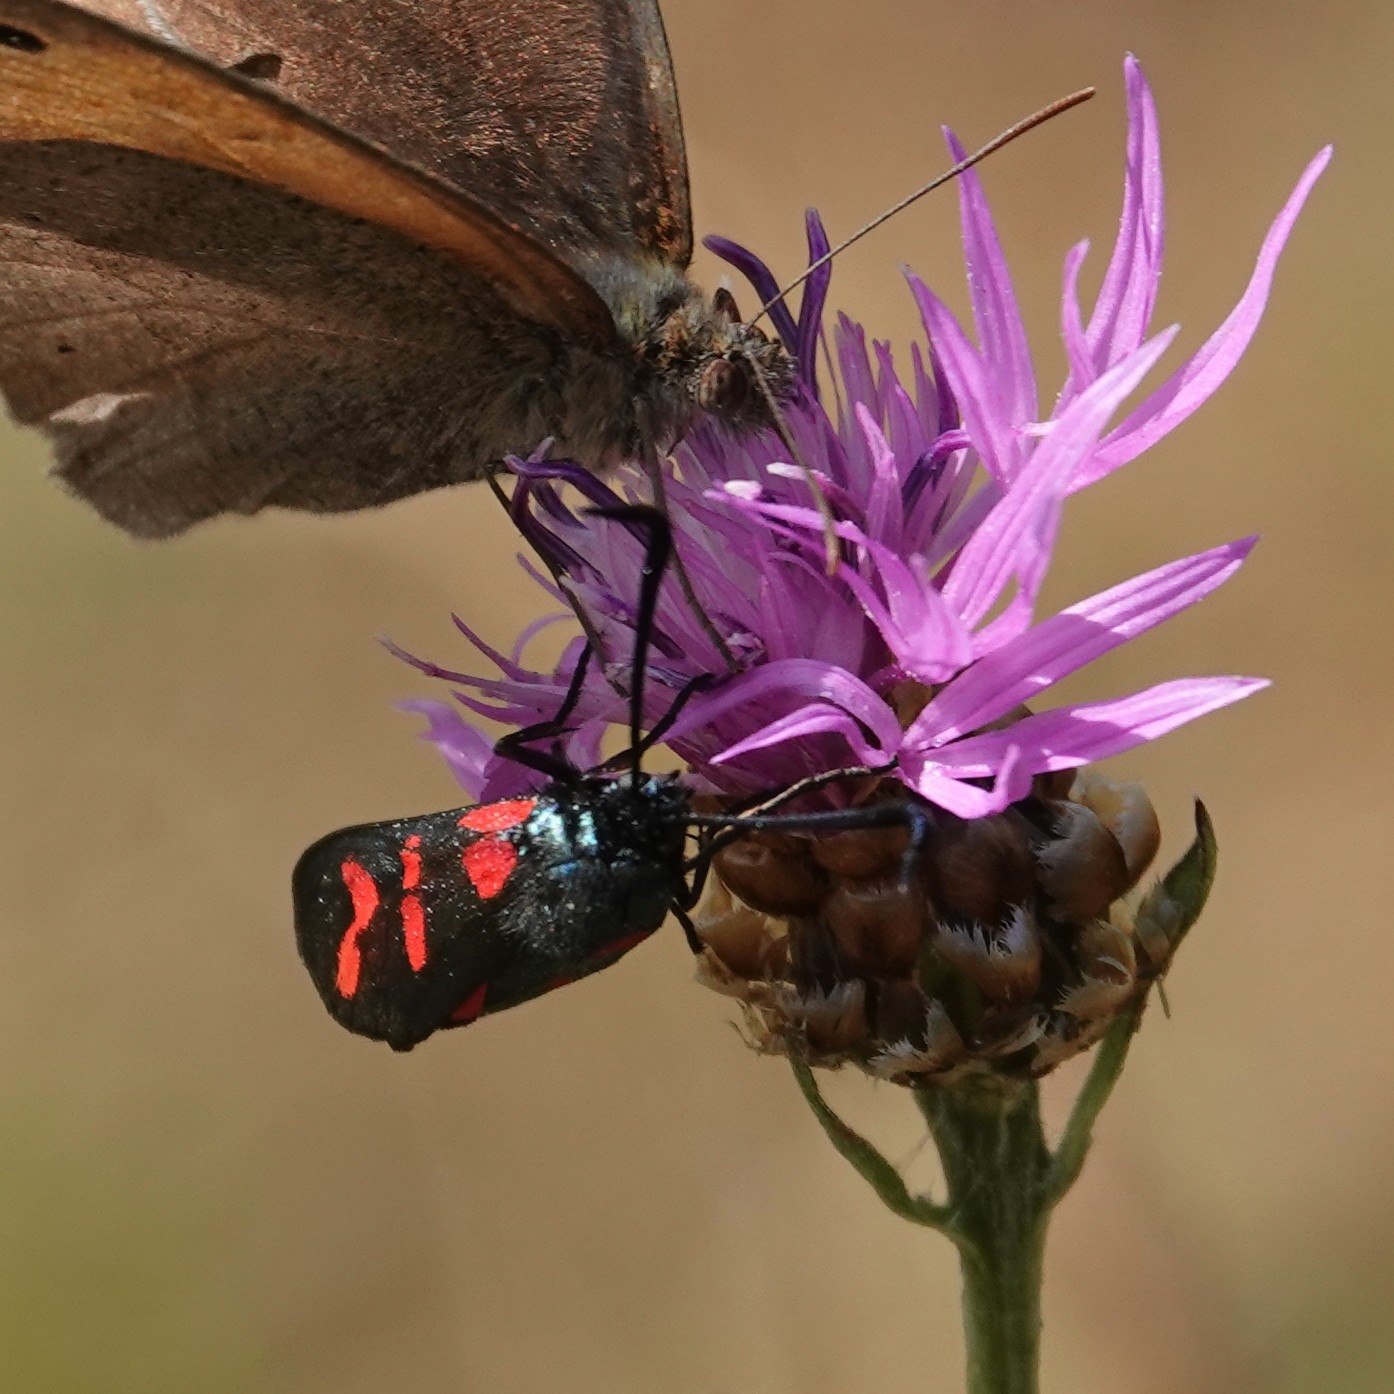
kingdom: Animalia
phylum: Arthropoda
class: Insecta
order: Lepidoptera
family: Zygaenidae
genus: Zygaena
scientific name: Zygaena filipendulae
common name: Six-spot burnet
